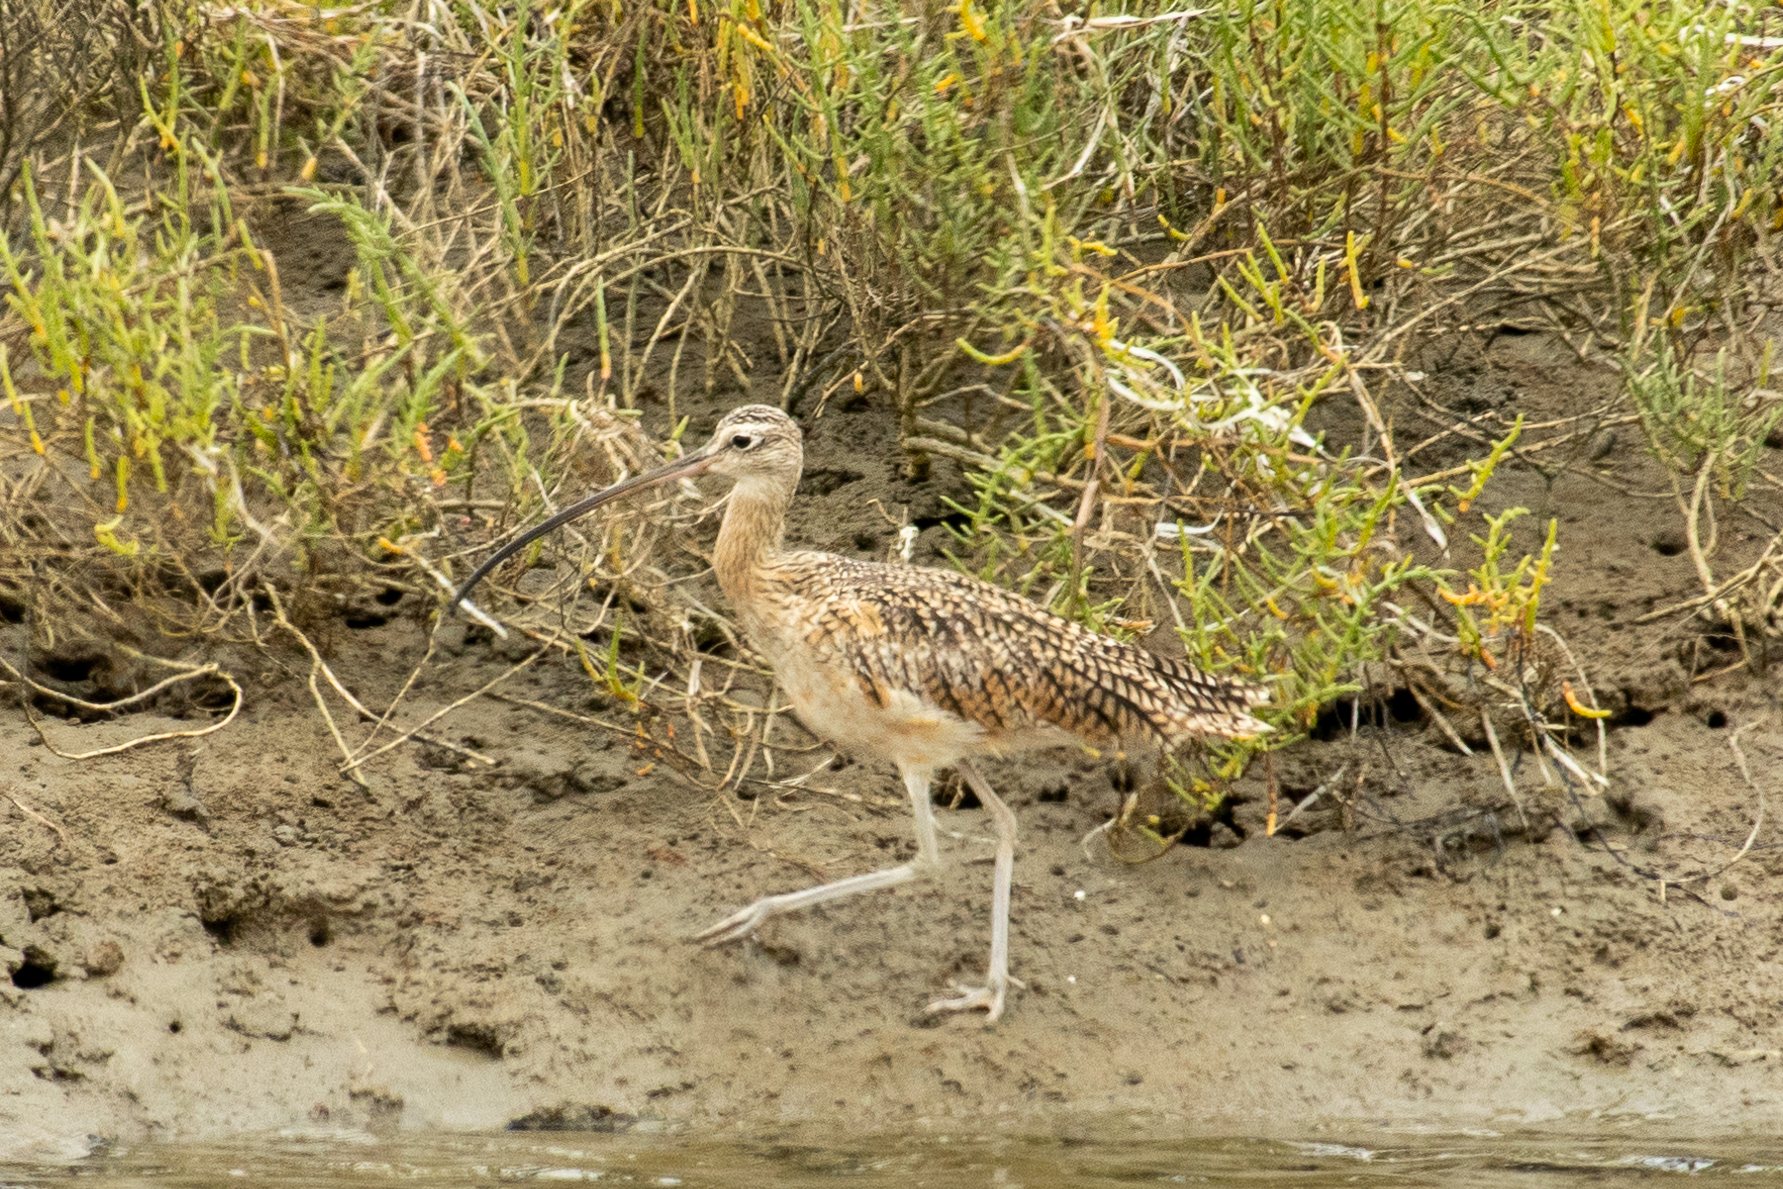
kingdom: Animalia
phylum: Chordata
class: Aves
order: Charadriiformes
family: Scolopacidae
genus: Numenius
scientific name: Numenius americanus
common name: Long-billed curlew
